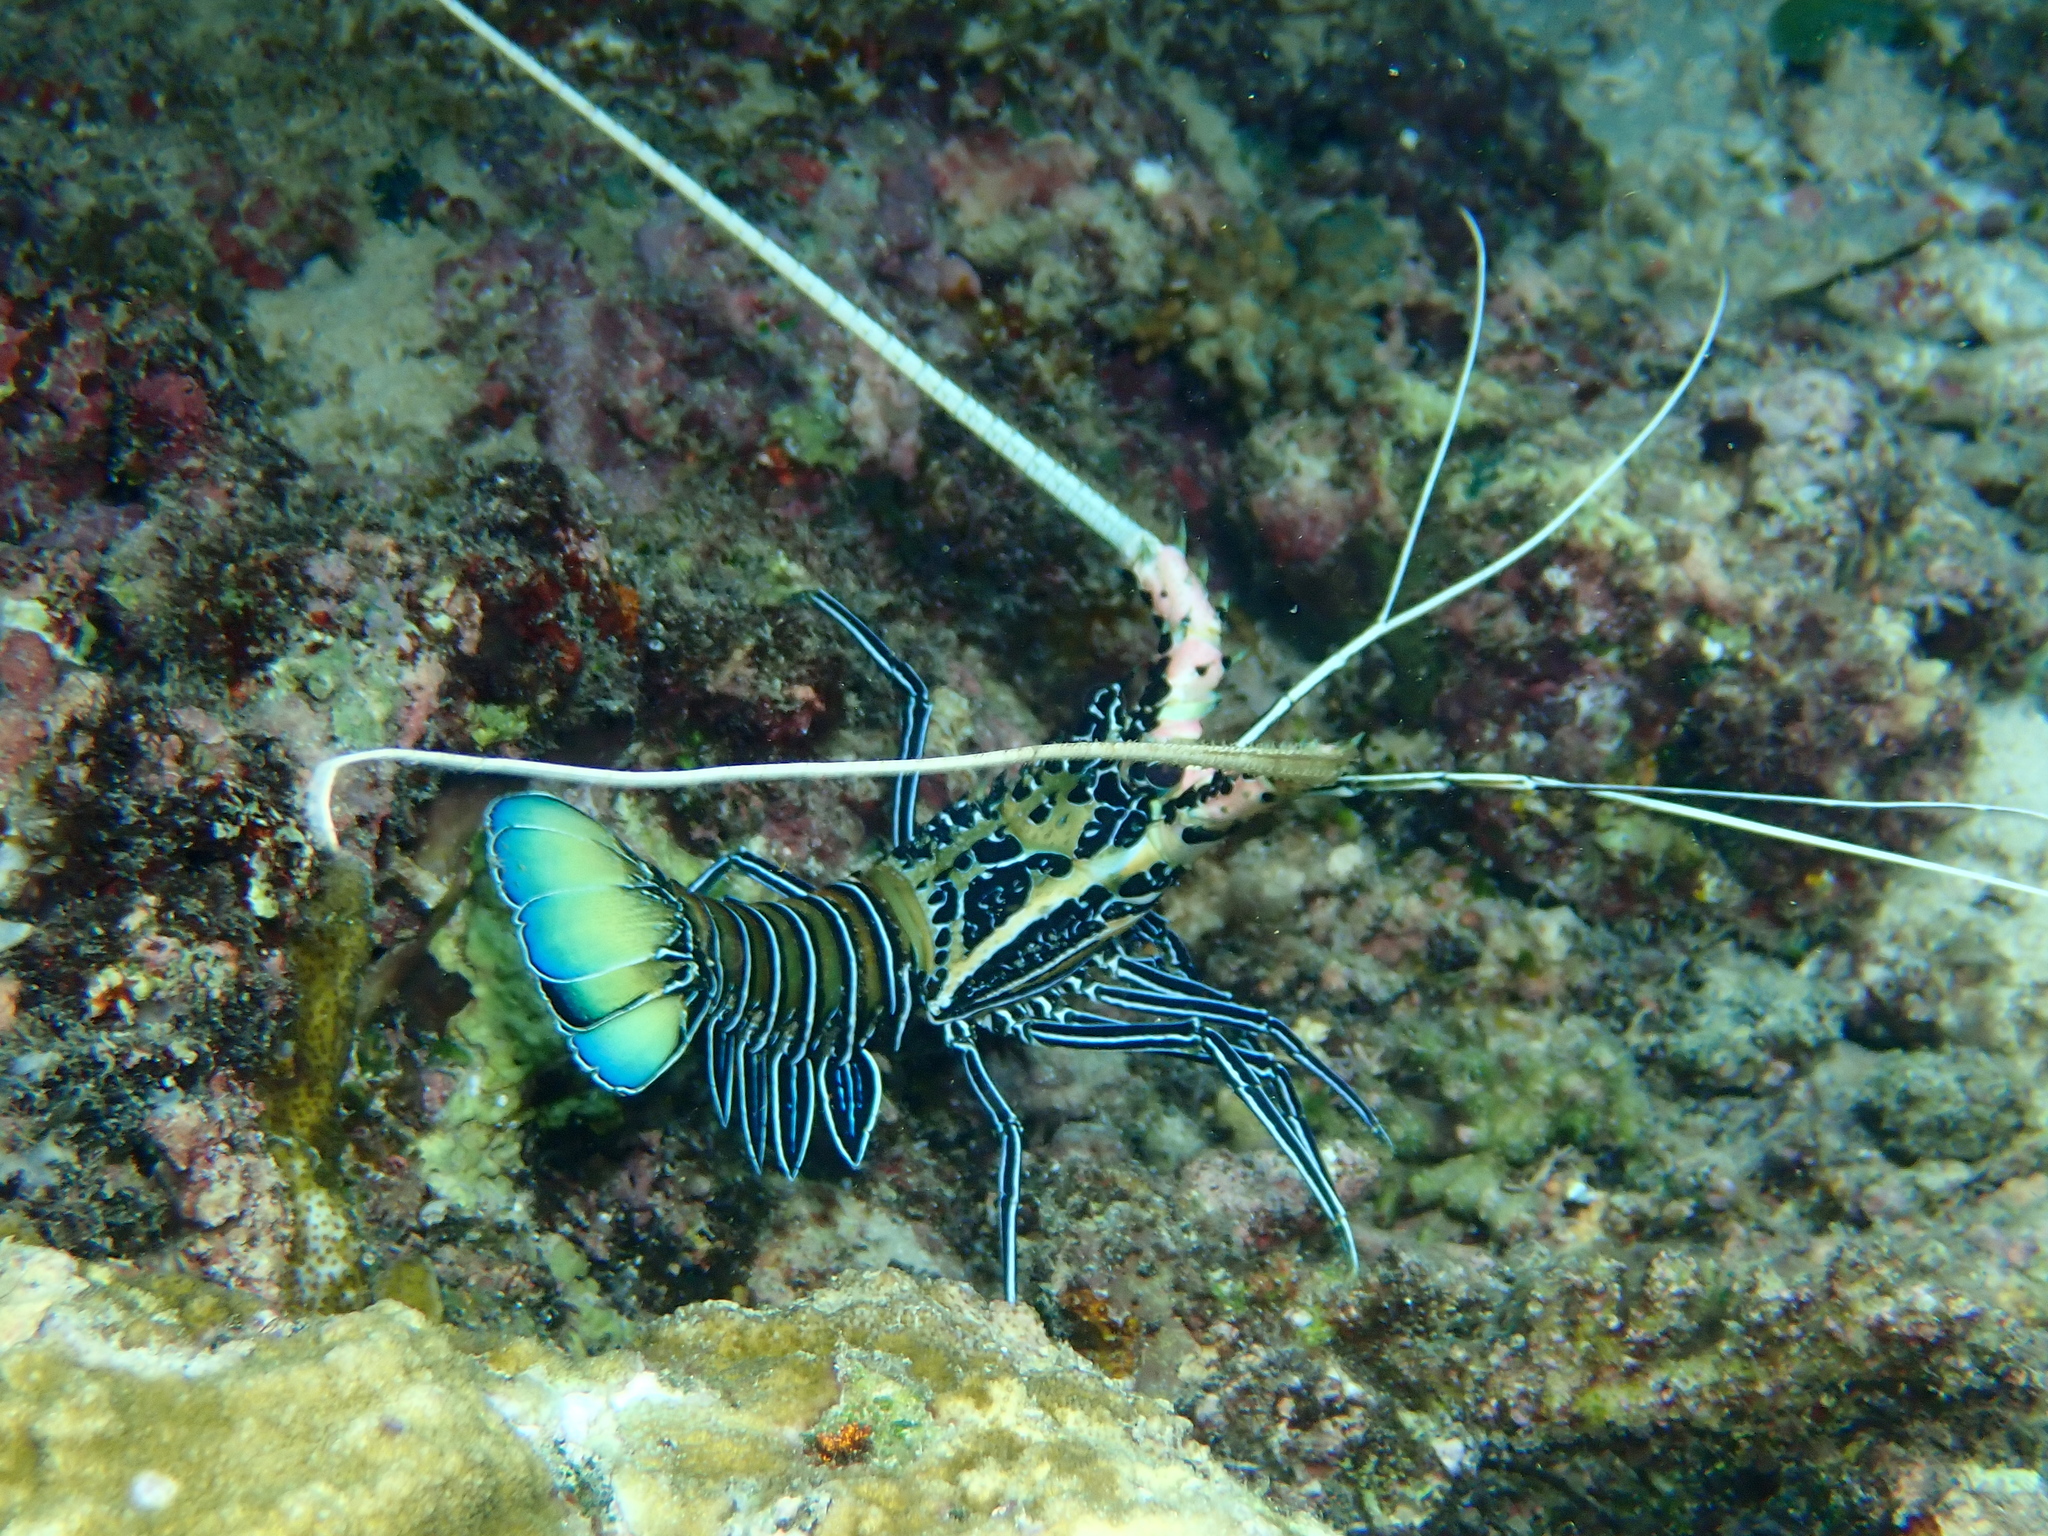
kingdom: Animalia
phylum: Arthropoda
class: Malacostraca
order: Decapoda
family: Palinuridae
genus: Panulirus
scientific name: Panulirus versicolor
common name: Painted spiny lobster
